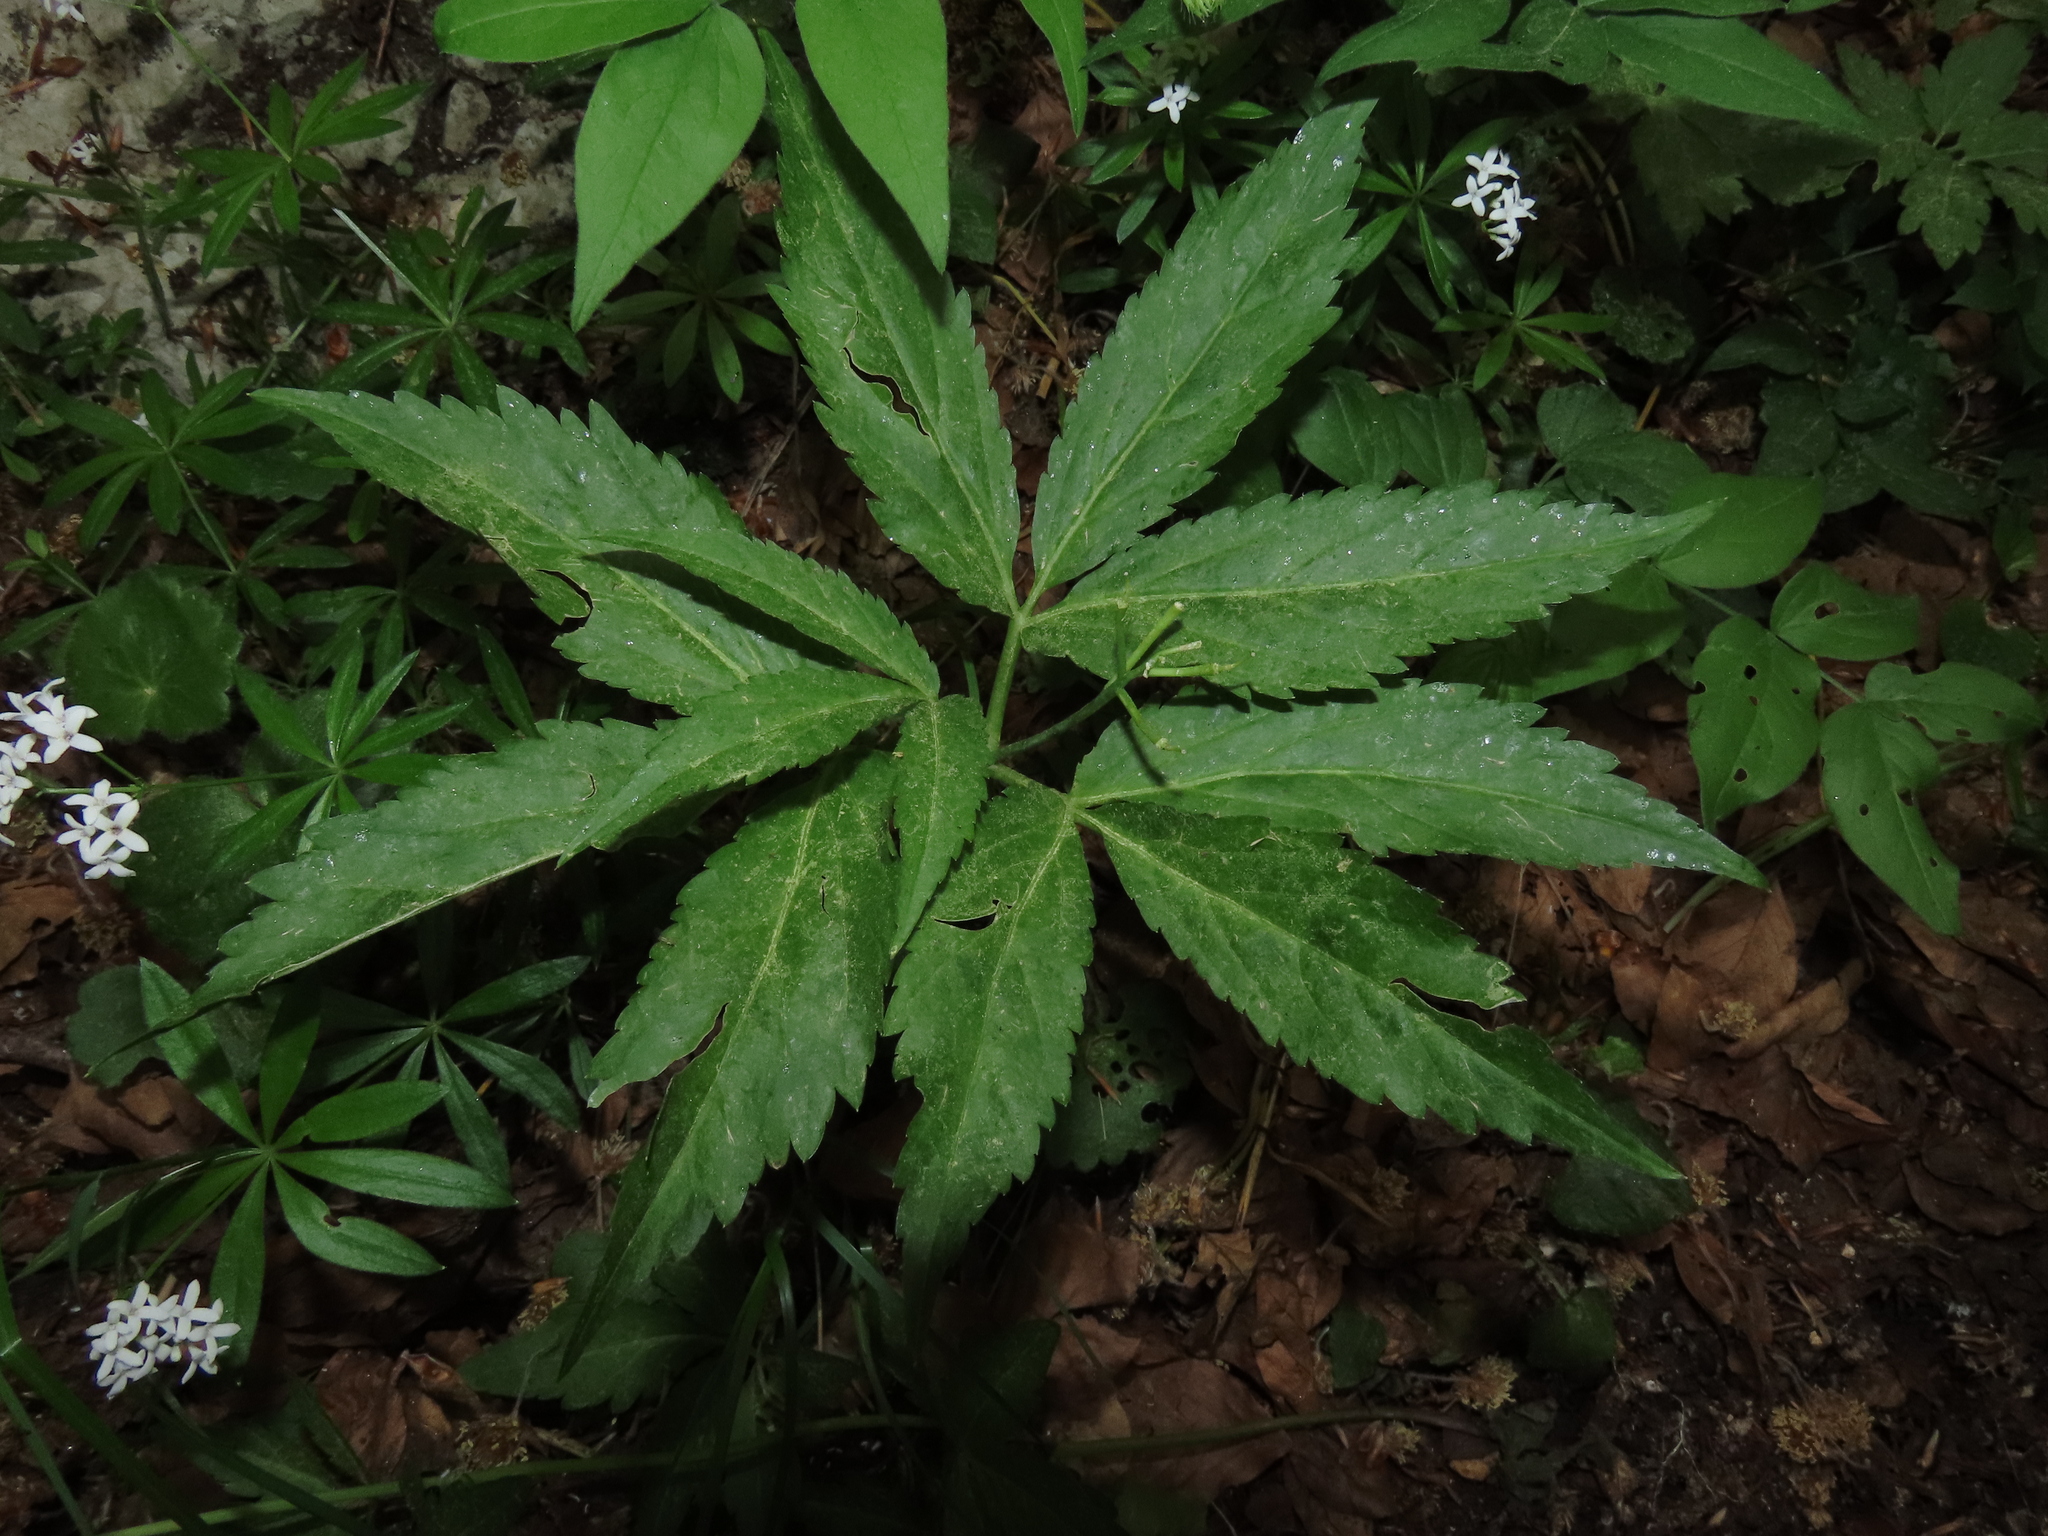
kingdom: Plantae
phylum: Tracheophyta
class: Magnoliopsida
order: Brassicales
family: Brassicaceae
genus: Cardamine
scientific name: Cardamine enneaphyllos
